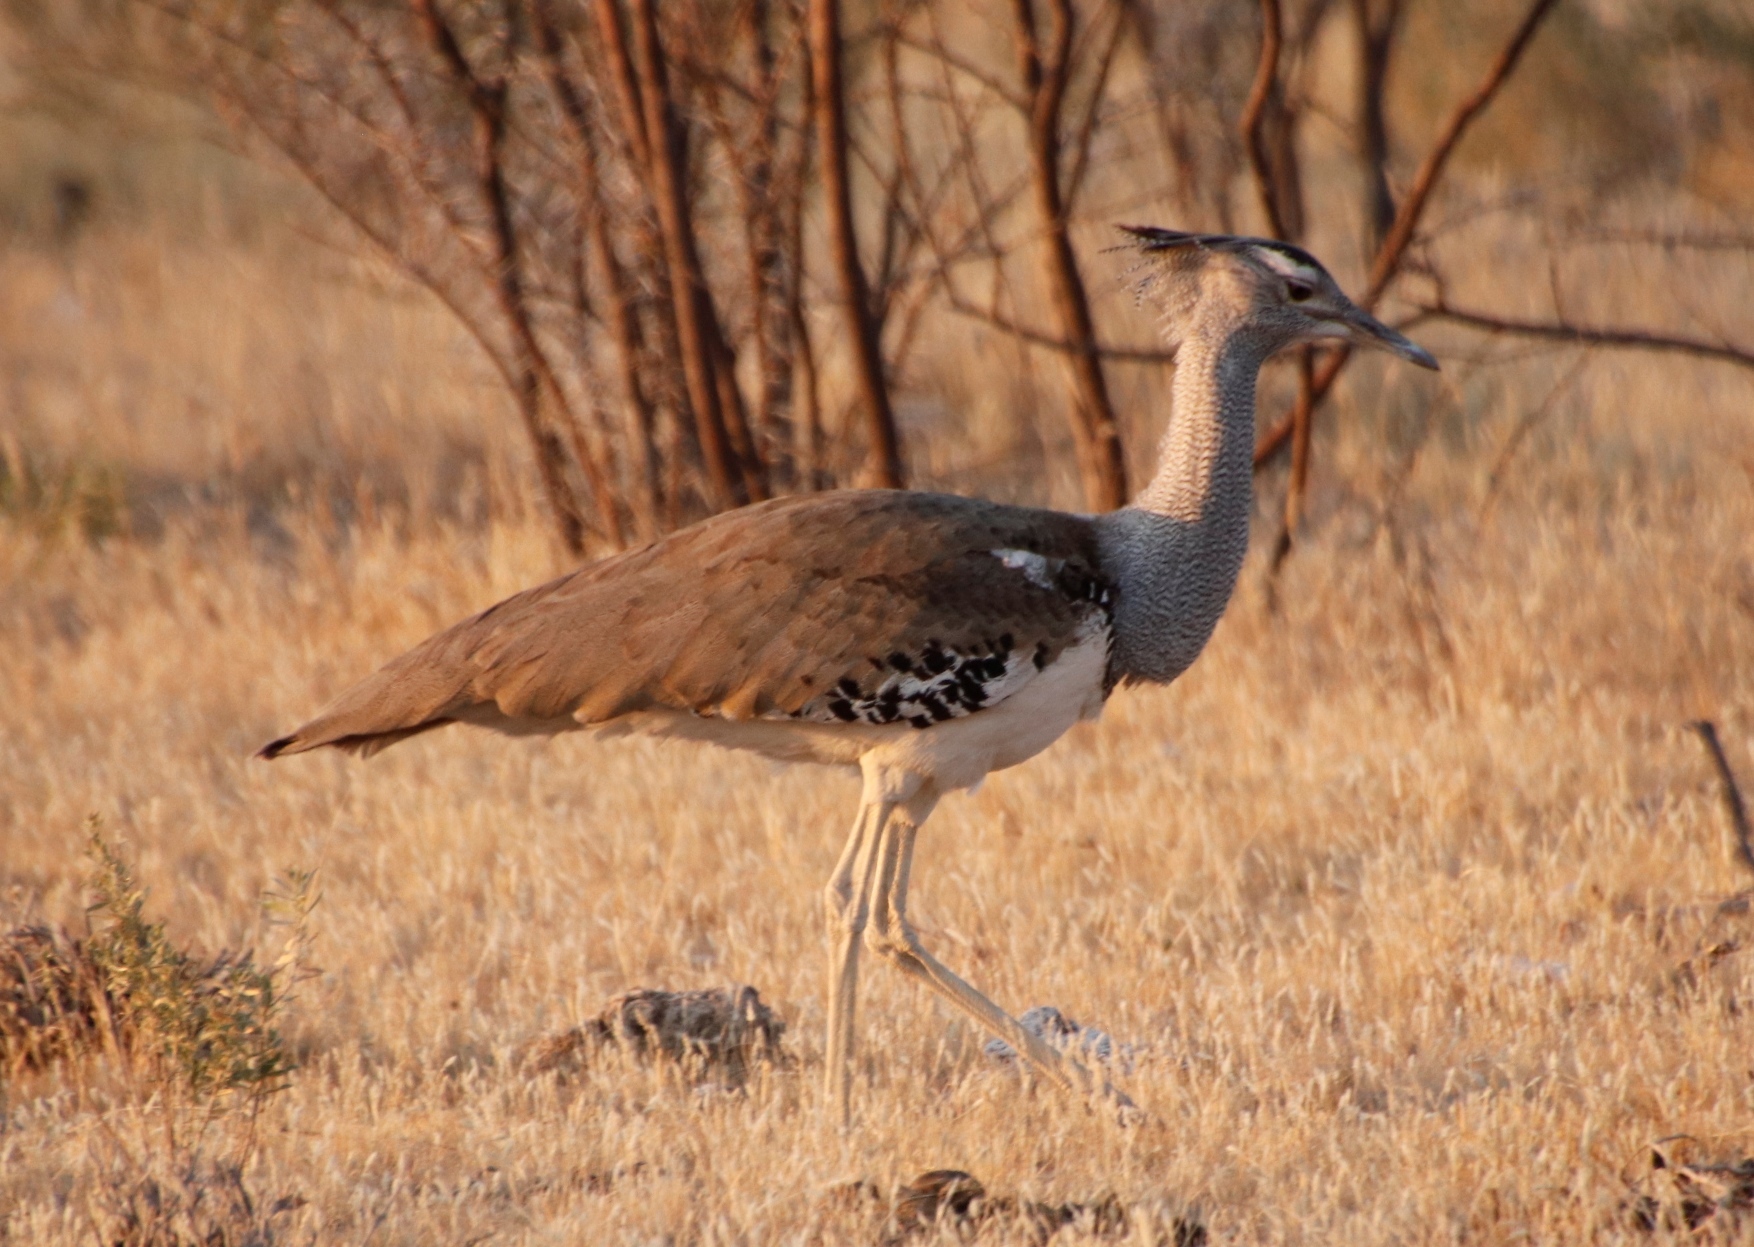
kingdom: Animalia
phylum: Chordata
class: Aves
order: Otidiformes
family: Otididae
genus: Ardeotis
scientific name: Ardeotis kori
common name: Kori bustard
